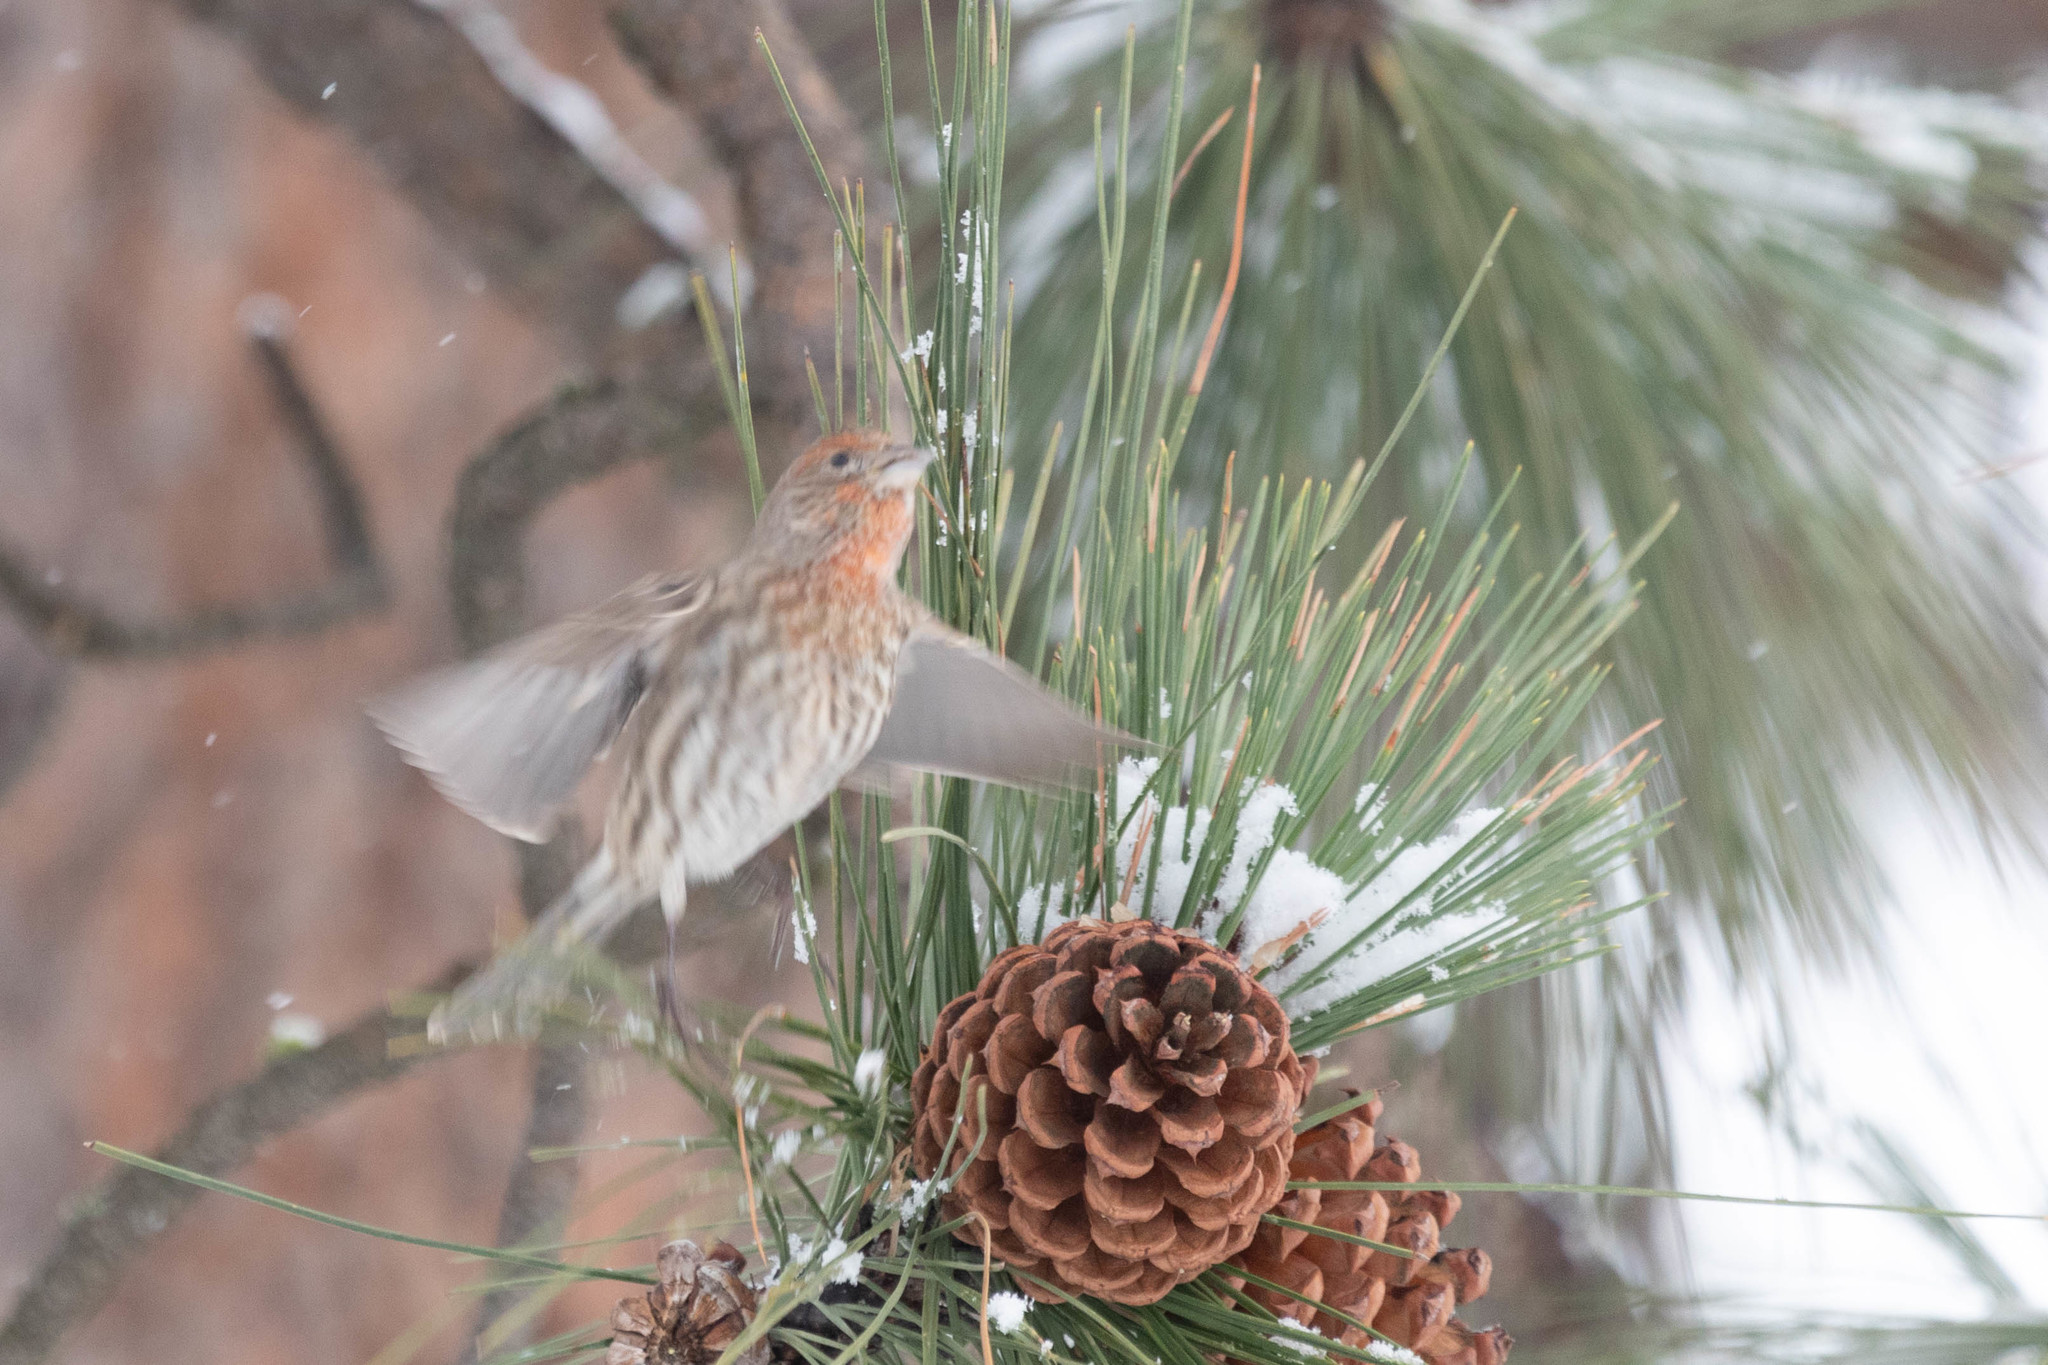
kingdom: Animalia
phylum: Chordata
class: Aves
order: Passeriformes
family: Fringillidae
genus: Haemorhous
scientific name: Haemorhous mexicanus
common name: House finch
